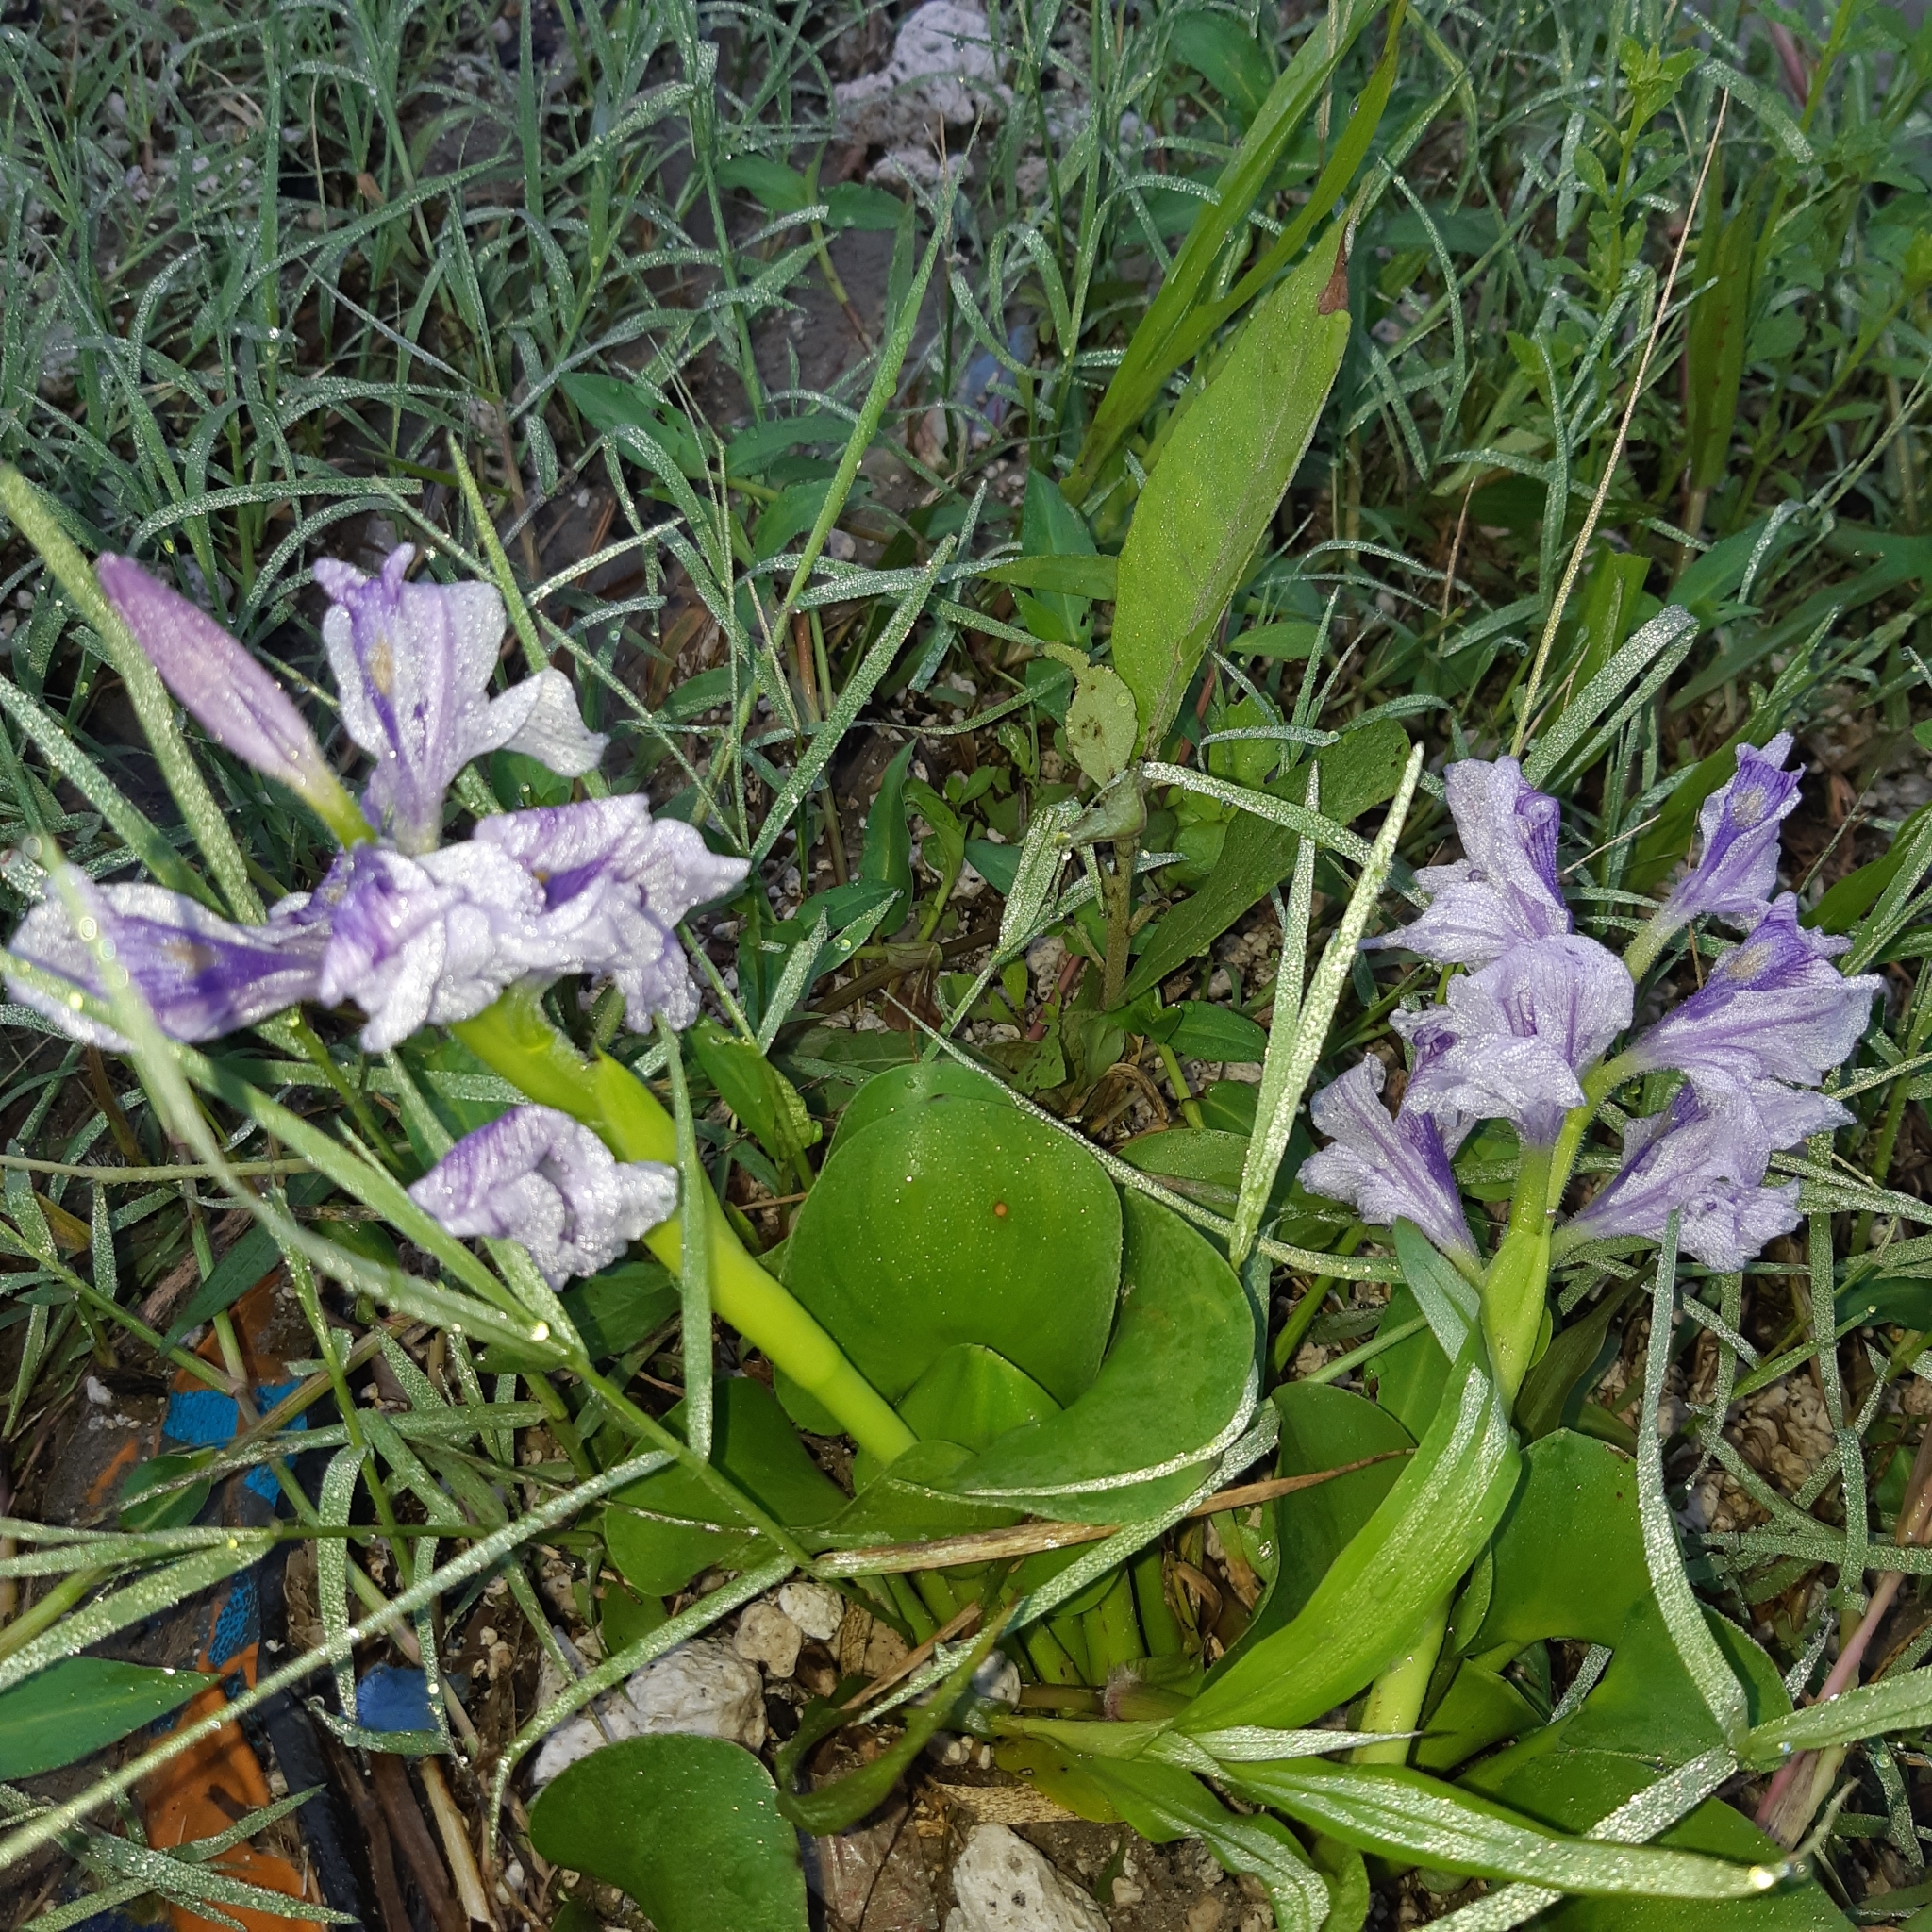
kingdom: Plantae
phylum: Tracheophyta
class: Liliopsida
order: Commelinales
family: Pontederiaceae
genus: Pontederia
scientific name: Pontederia crassipes
